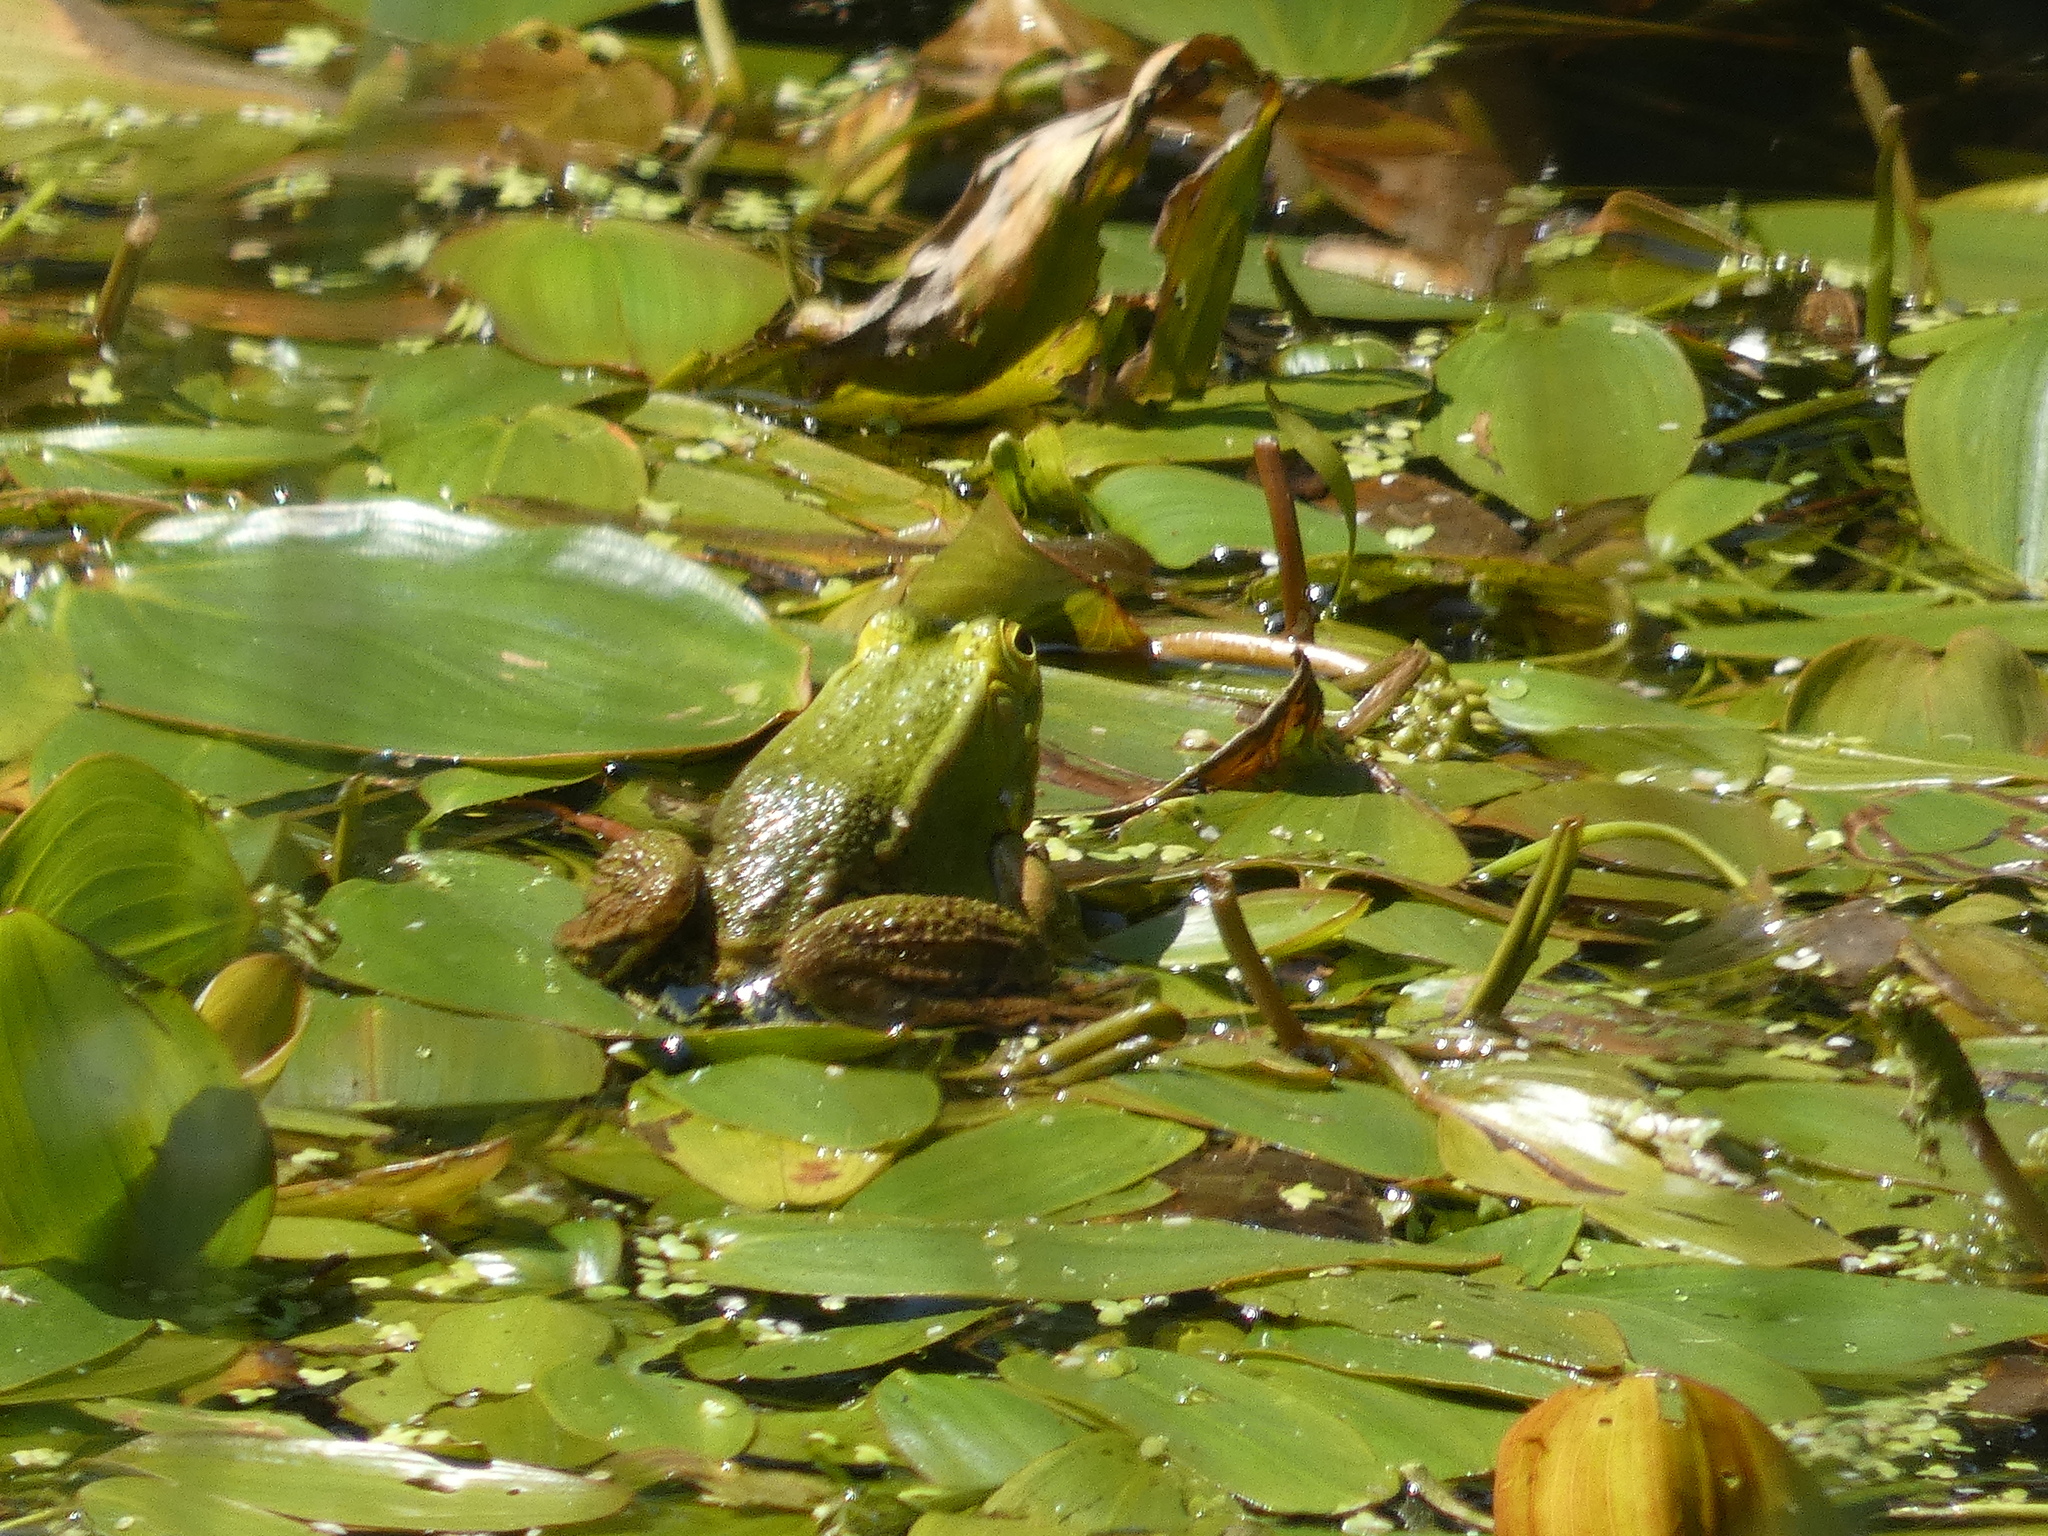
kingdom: Animalia
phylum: Chordata
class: Amphibia
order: Anura
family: Ranidae
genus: Pelophylax
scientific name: Pelophylax lessonae
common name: Pool frog
